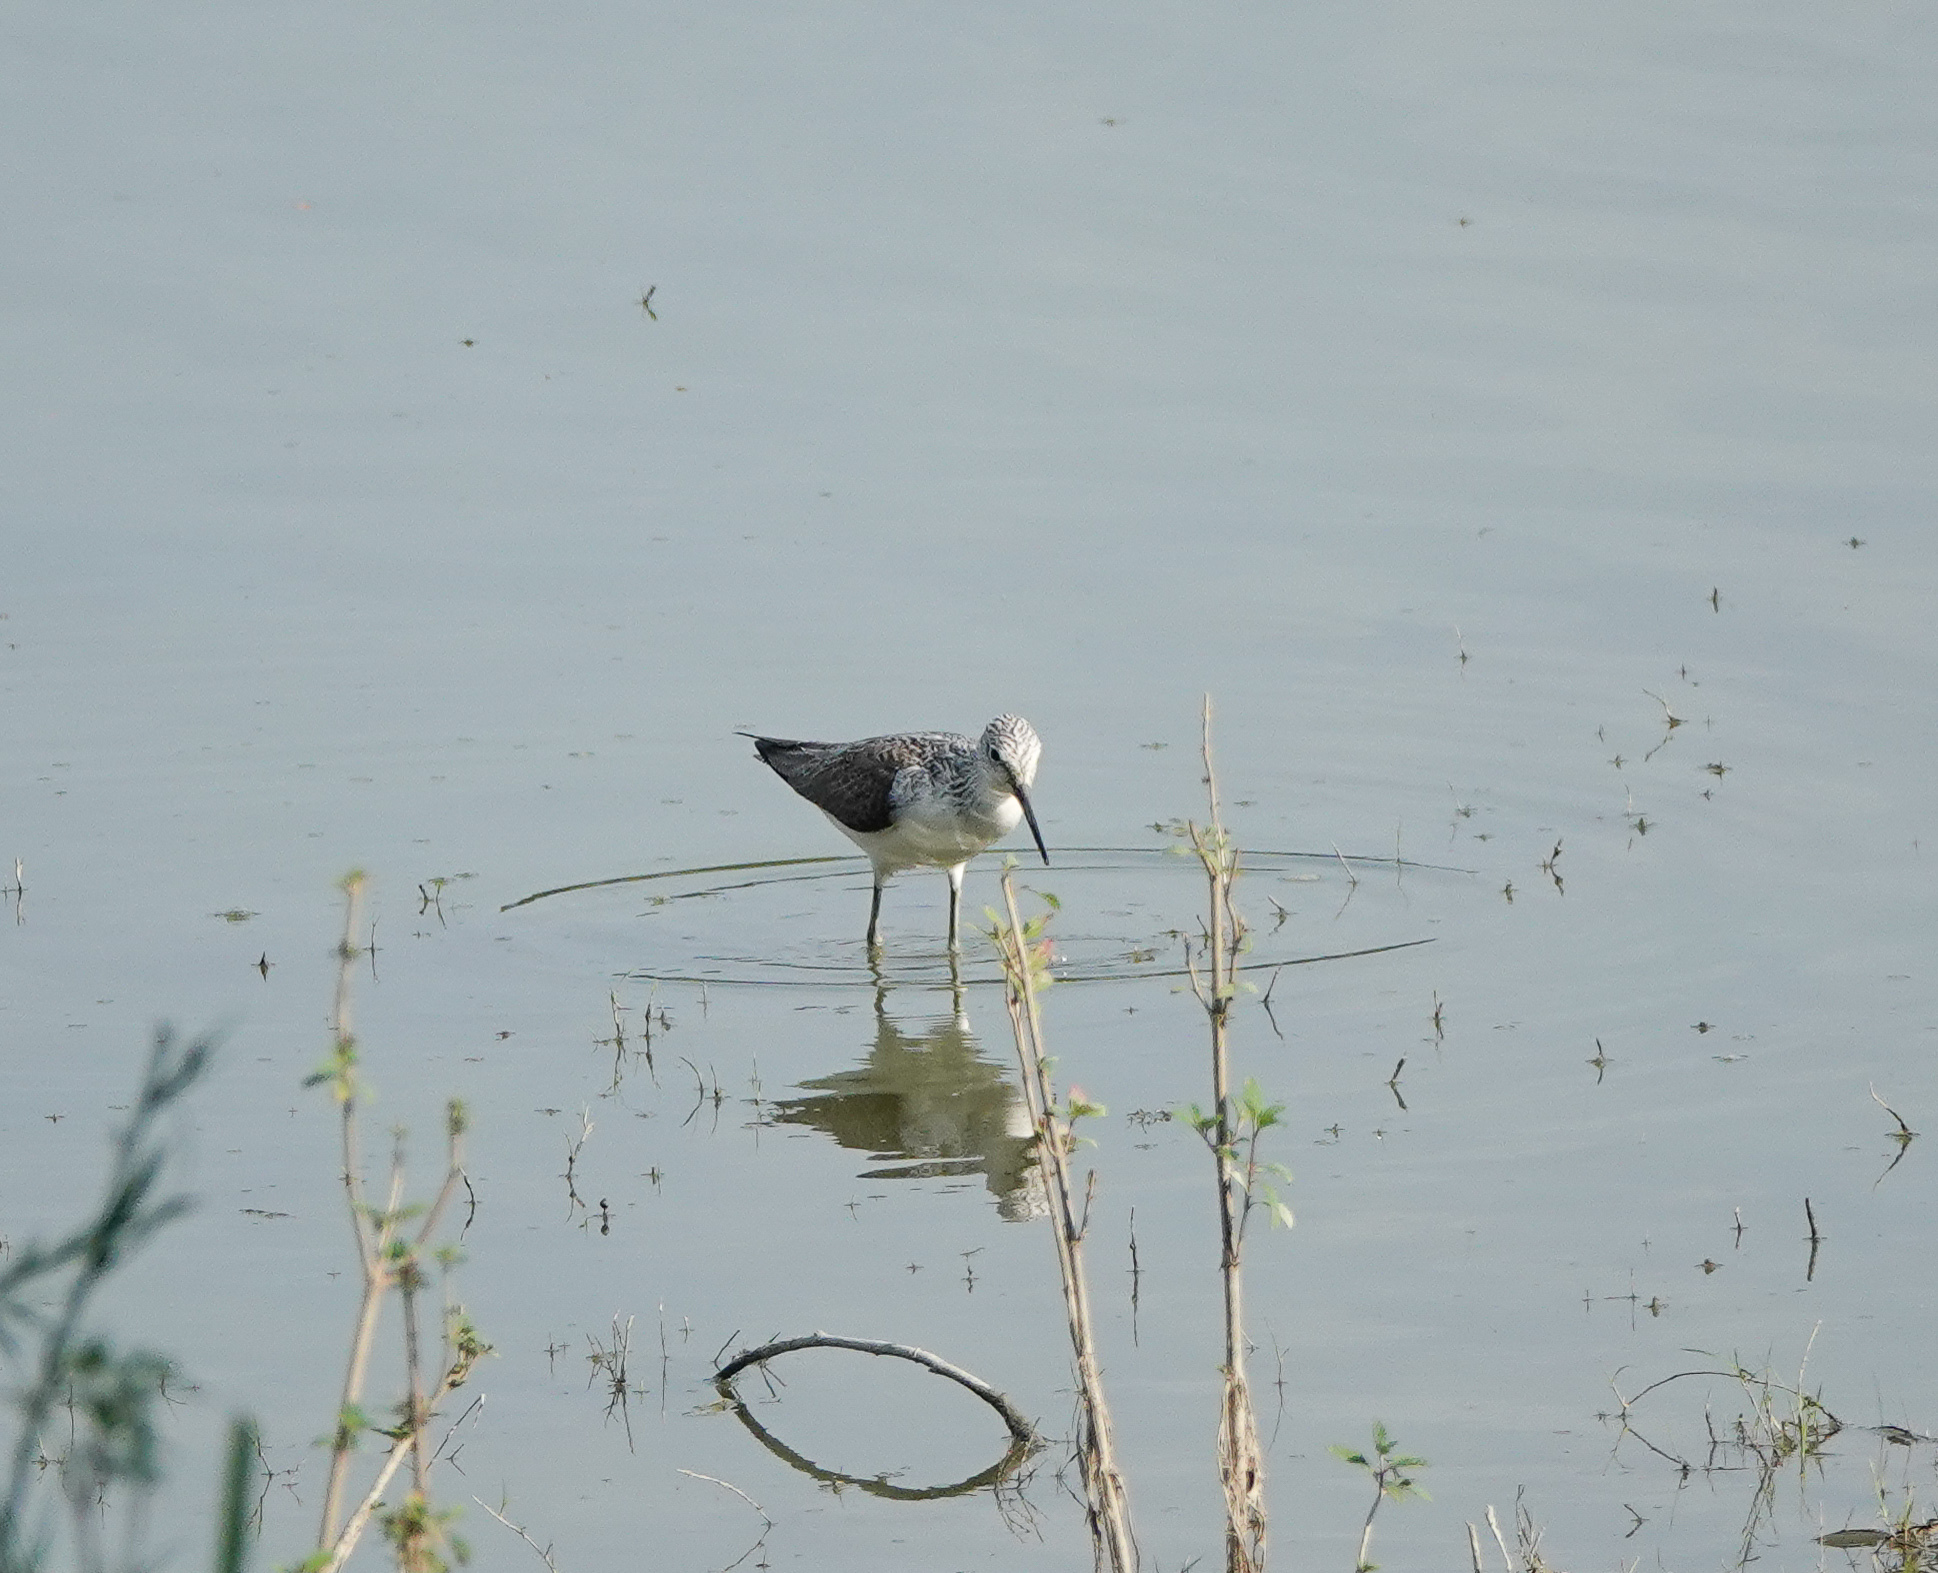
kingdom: Animalia
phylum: Chordata
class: Aves
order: Charadriiformes
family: Scolopacidae
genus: Tringa
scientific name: Tringa nebularia
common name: Common greenshank
